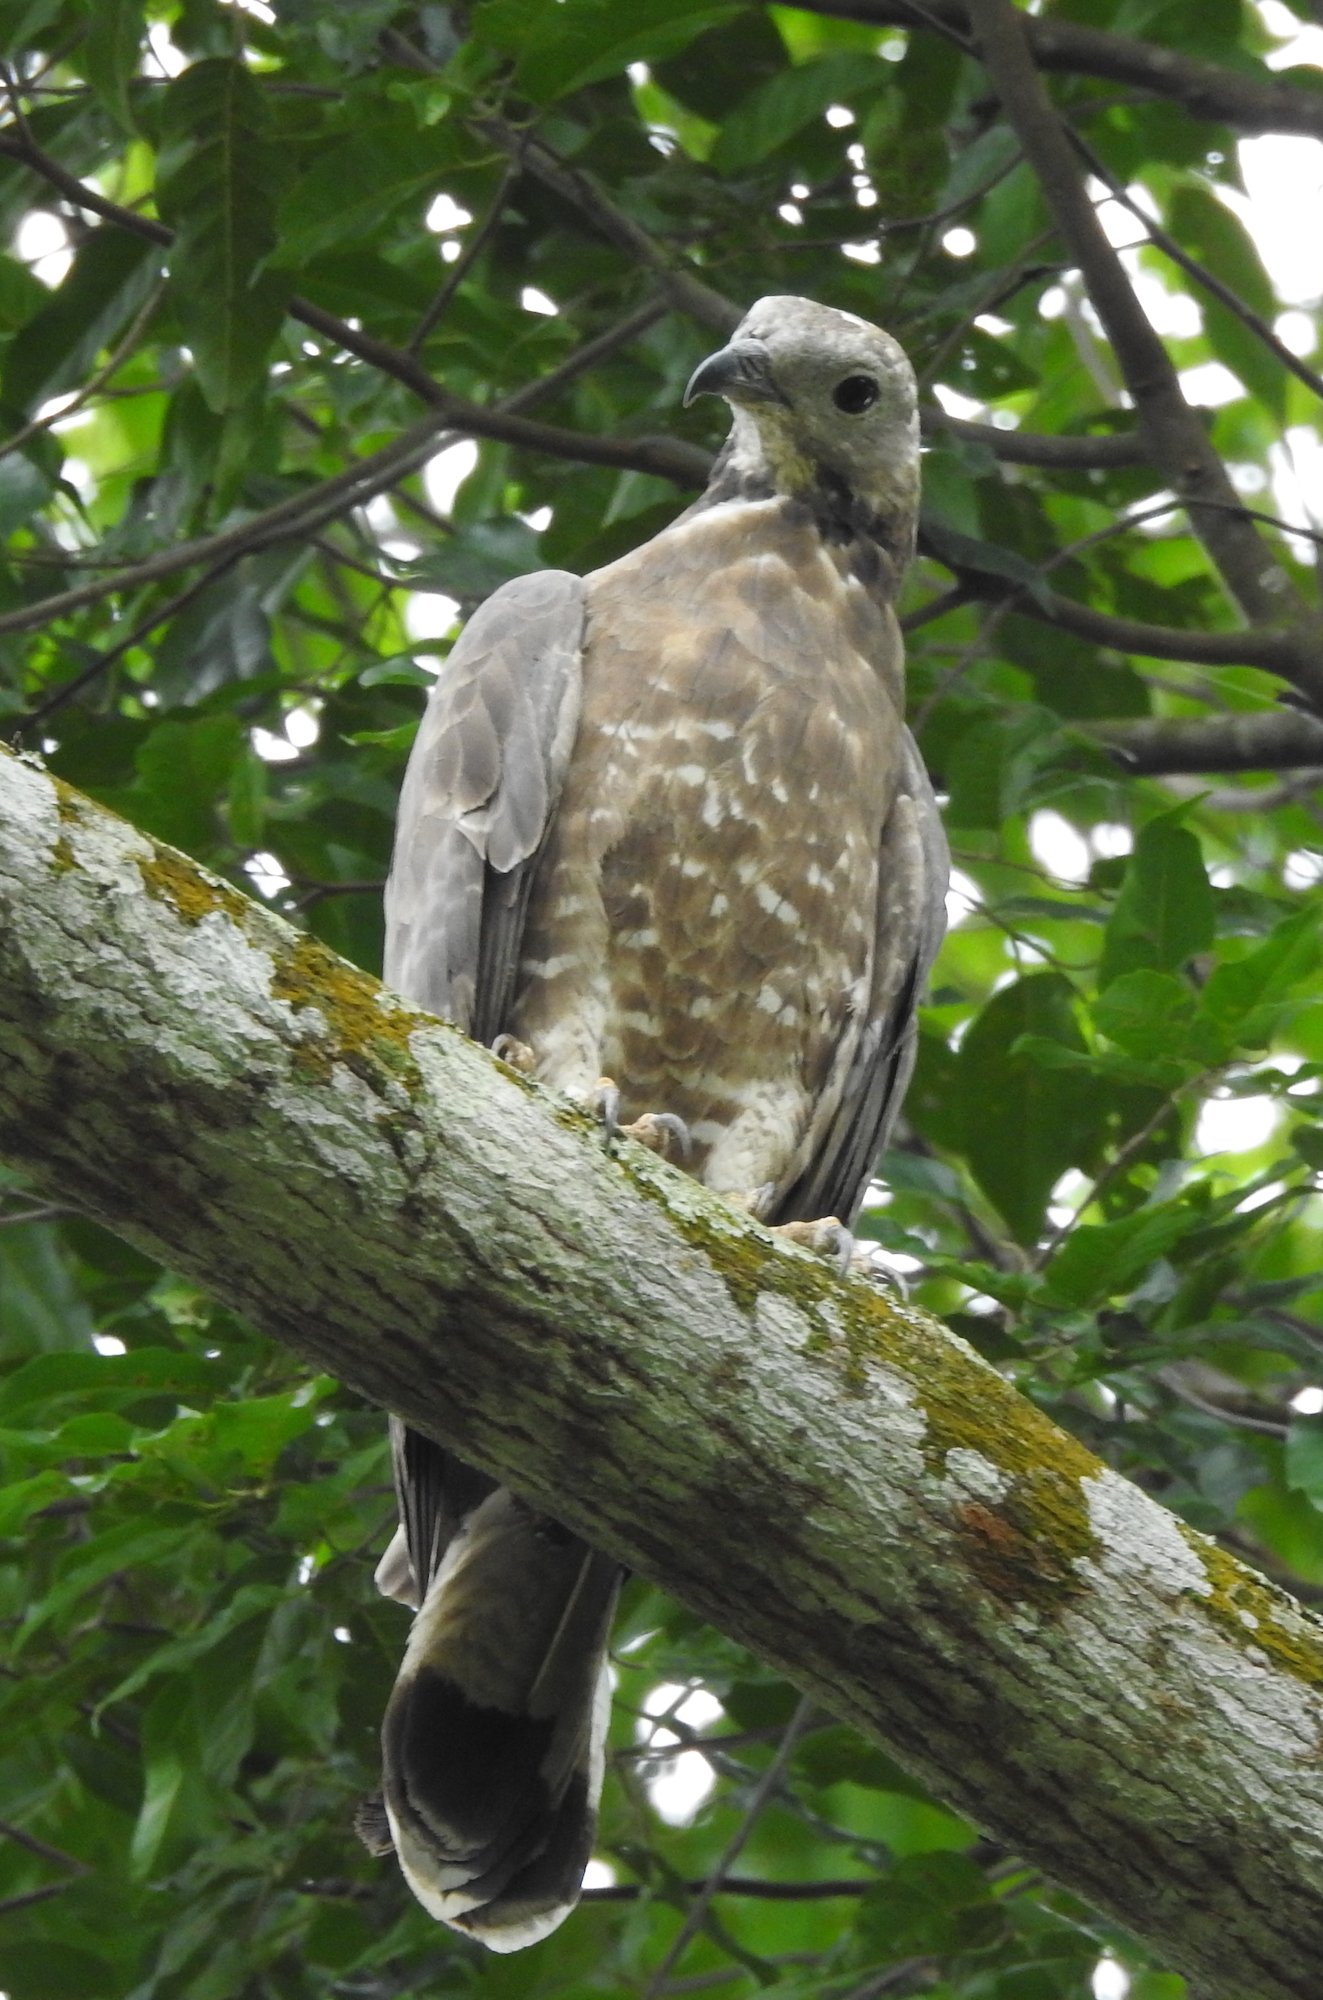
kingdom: Animalia
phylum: Chordata
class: Aves
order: Accipitriformes
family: Accipitridae
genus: Pernis
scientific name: Pernis ptilorhynchus
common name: Crested honey buzzard
